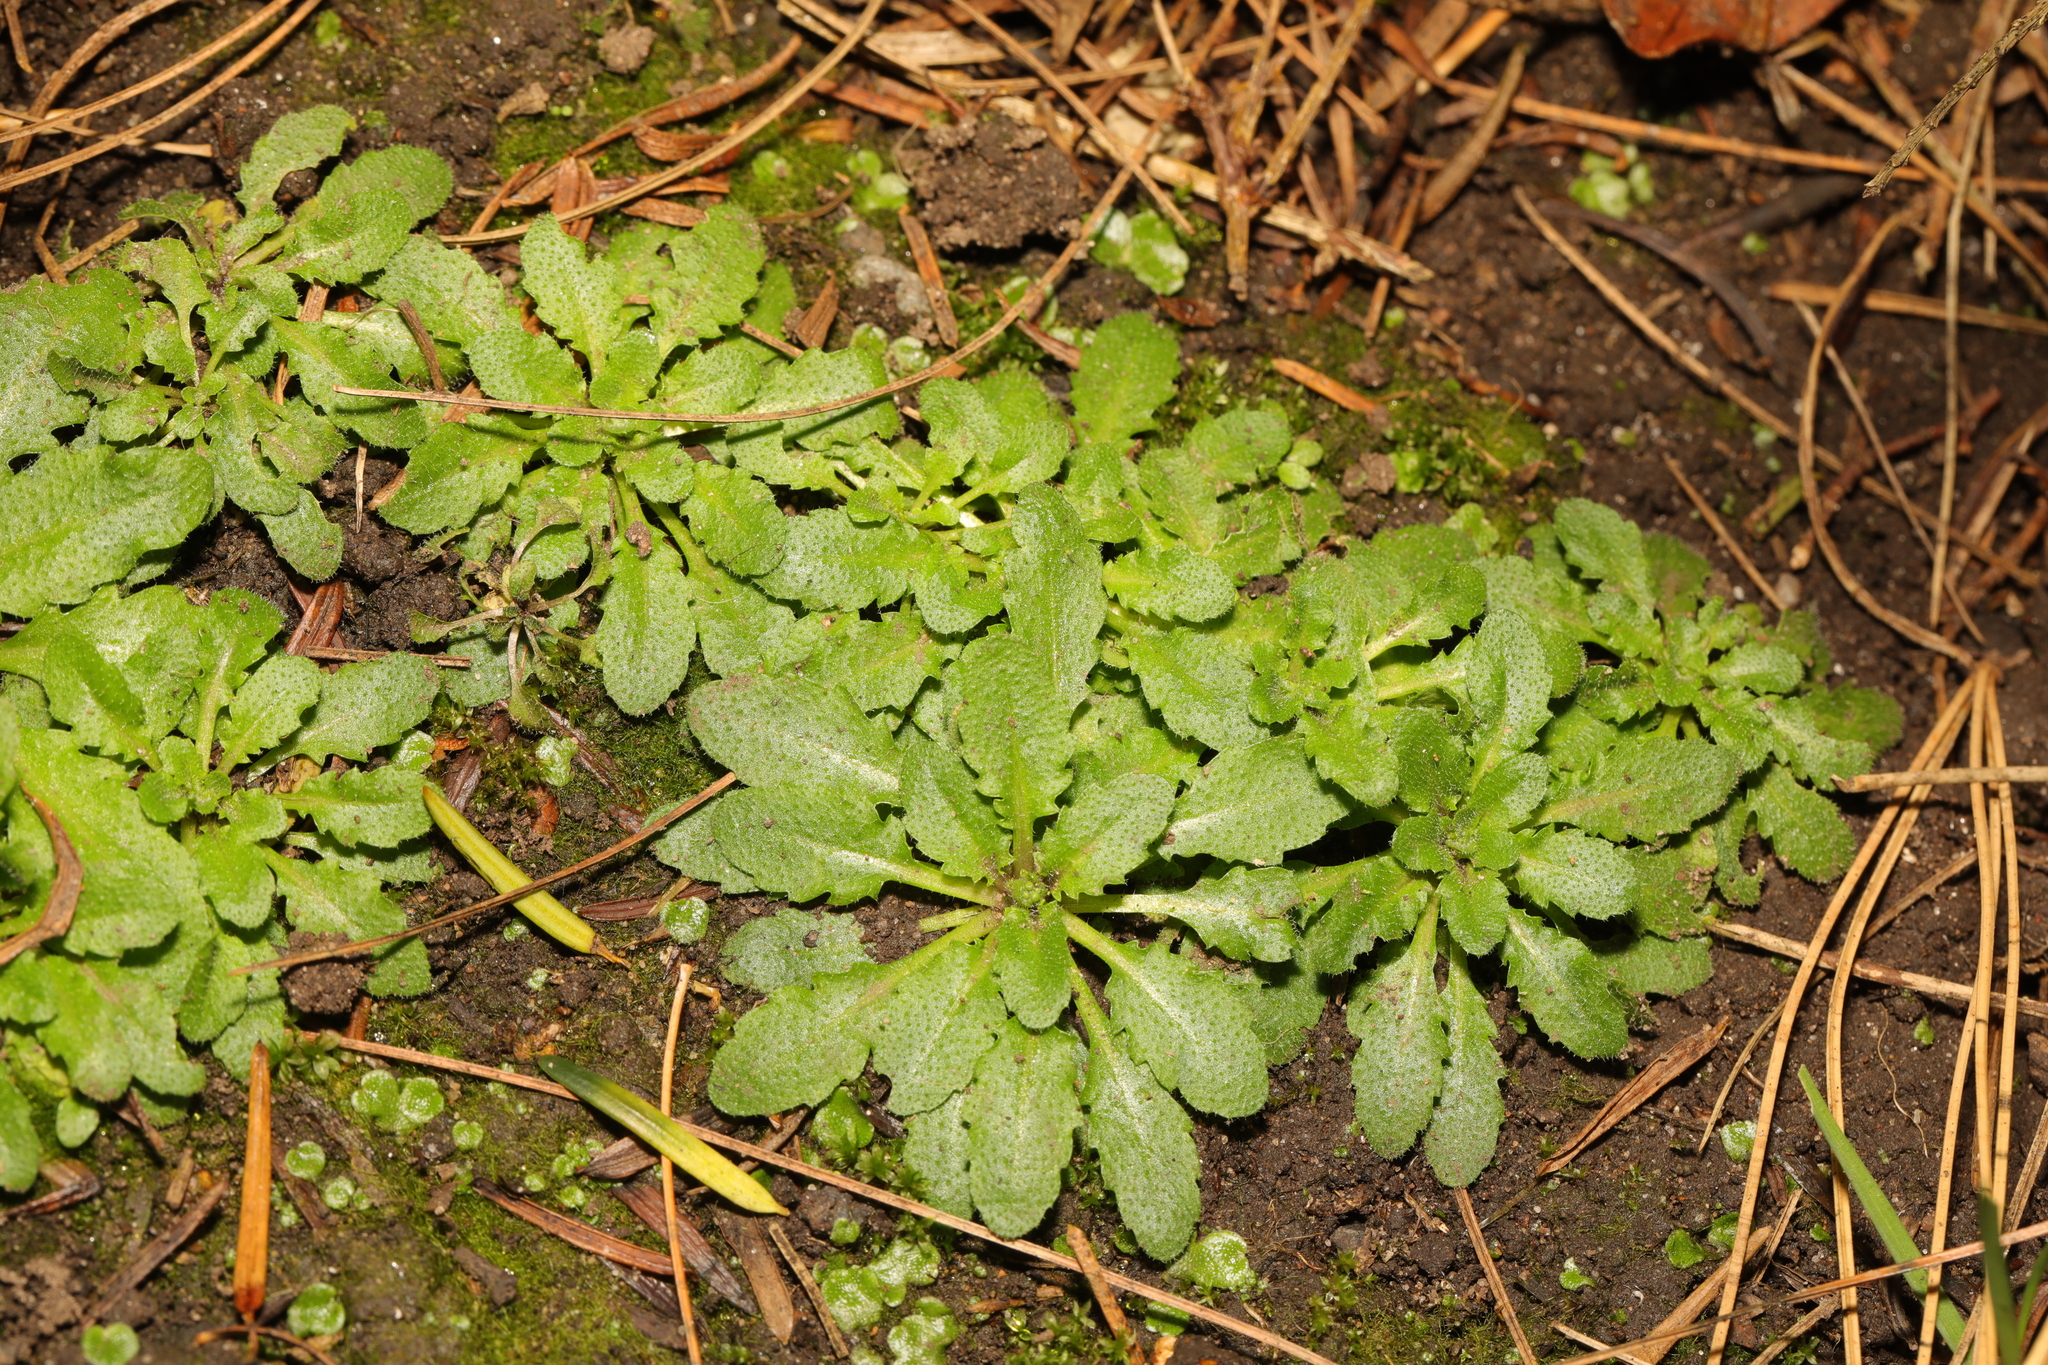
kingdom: Plantae
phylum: Tracheophyta
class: Magnoliopsida
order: Brassicales
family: Brassicaceae
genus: Arabidopsis
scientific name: Arabidopsis thaliana
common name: Thale cress
